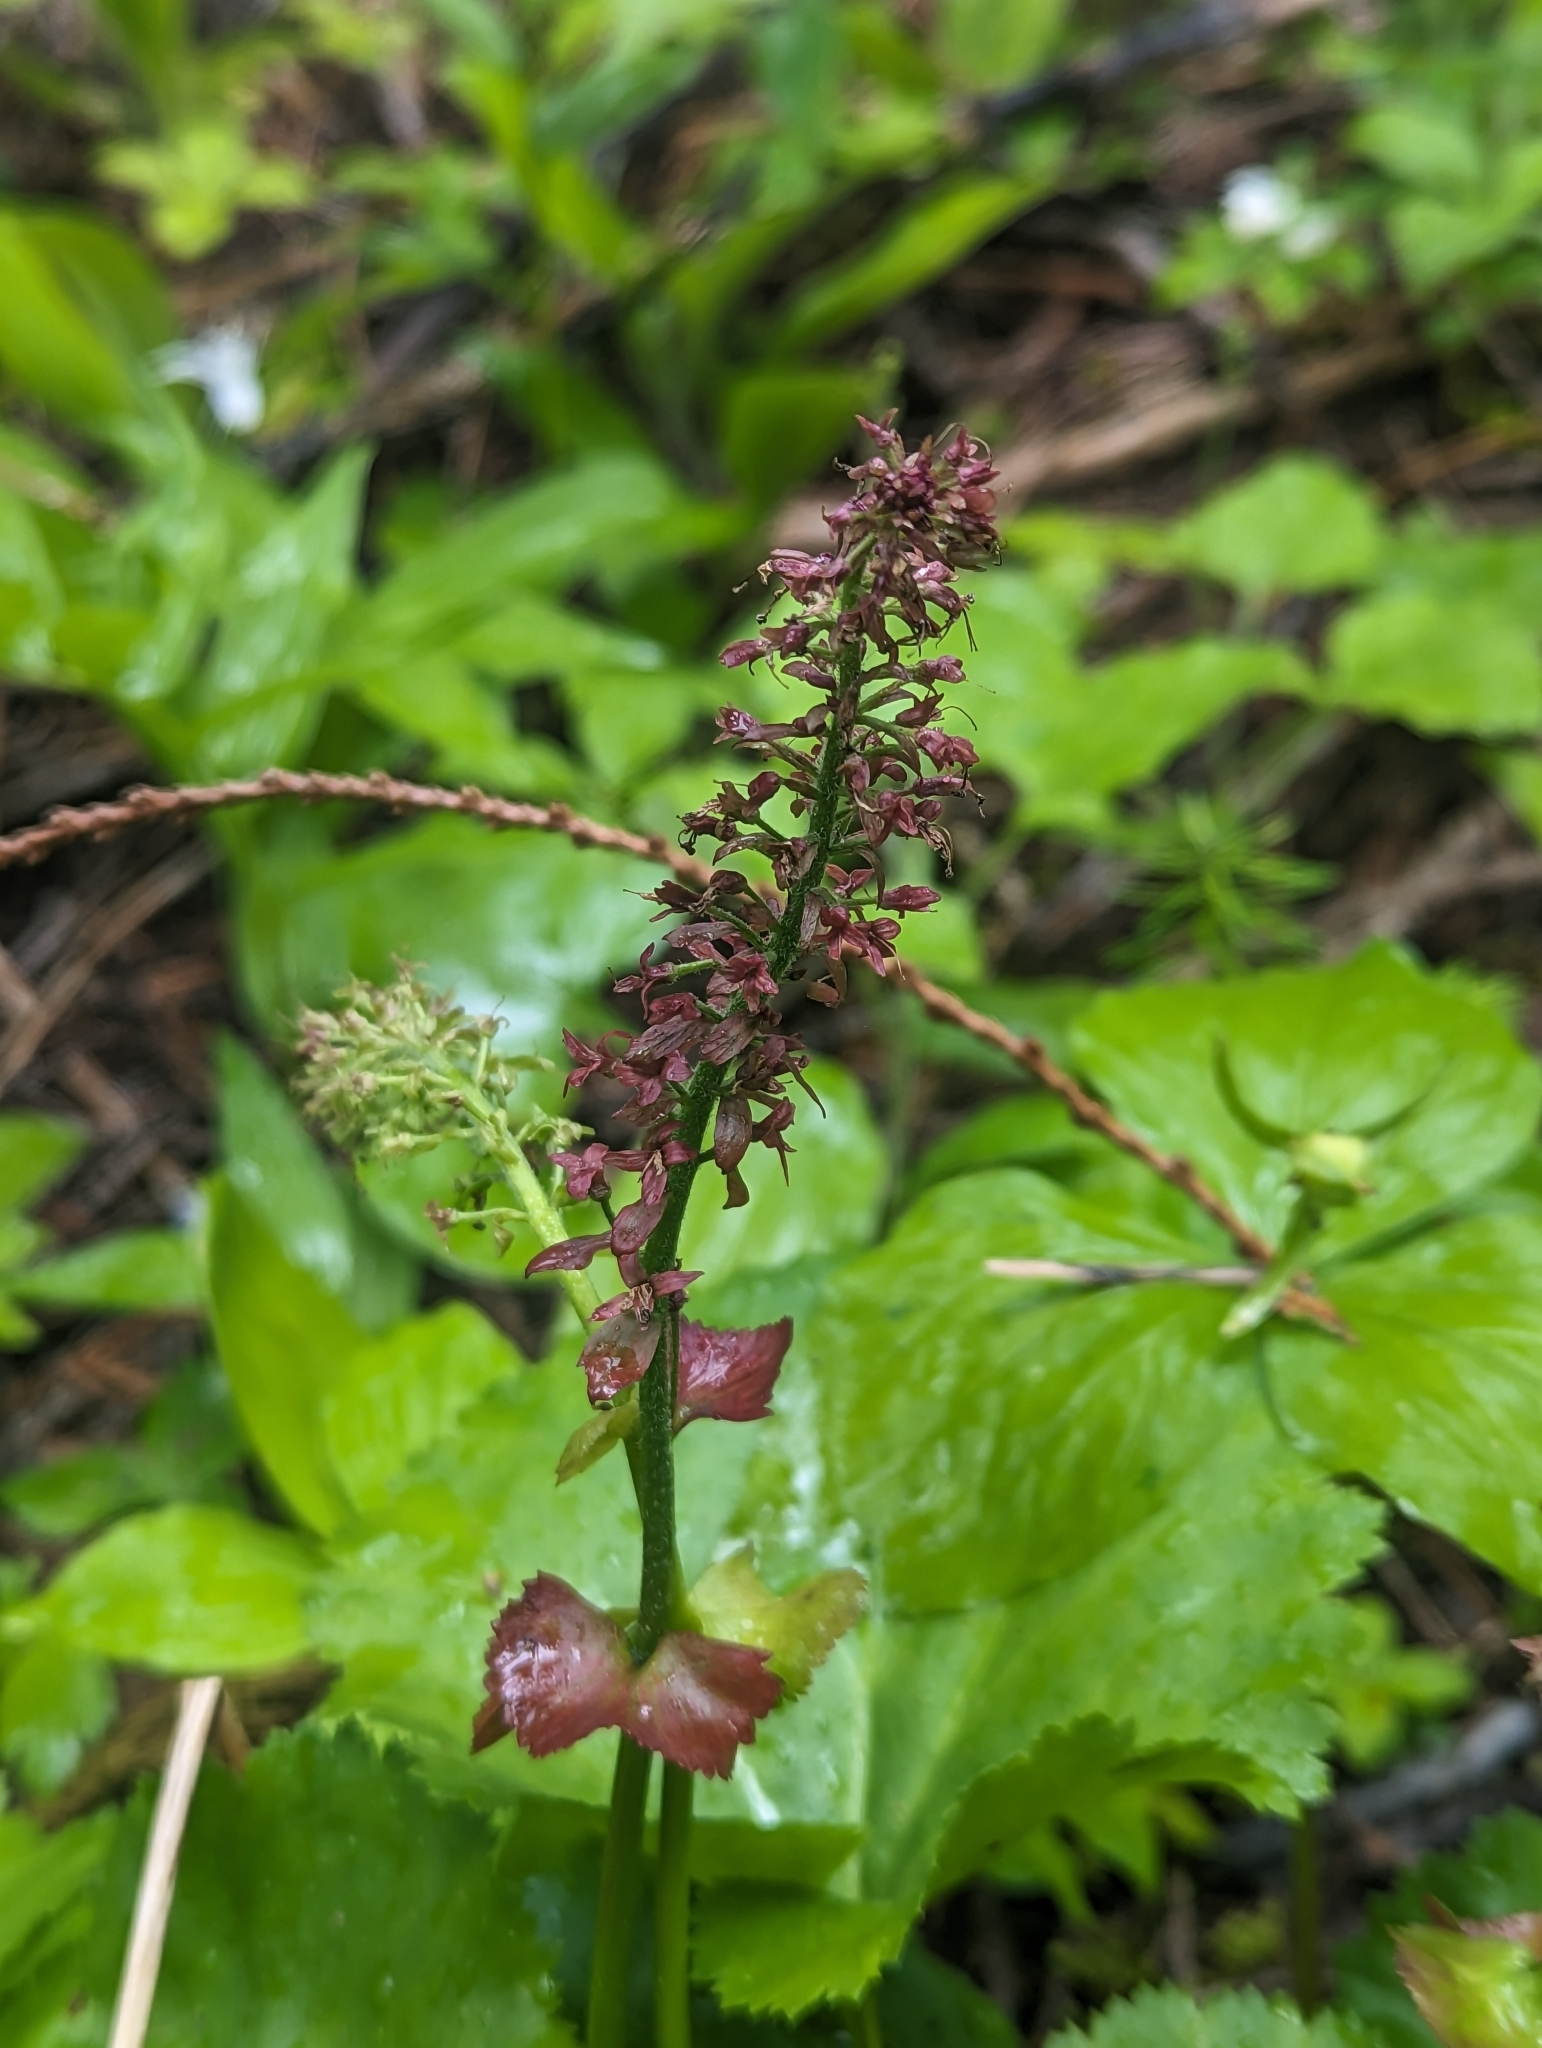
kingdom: Plantae
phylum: Tracheophyta
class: Magnoliopsida
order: Lamiales
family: Plantaginaceae
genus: Synthyris
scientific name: Synthyris missurica
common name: Kitten-tails
